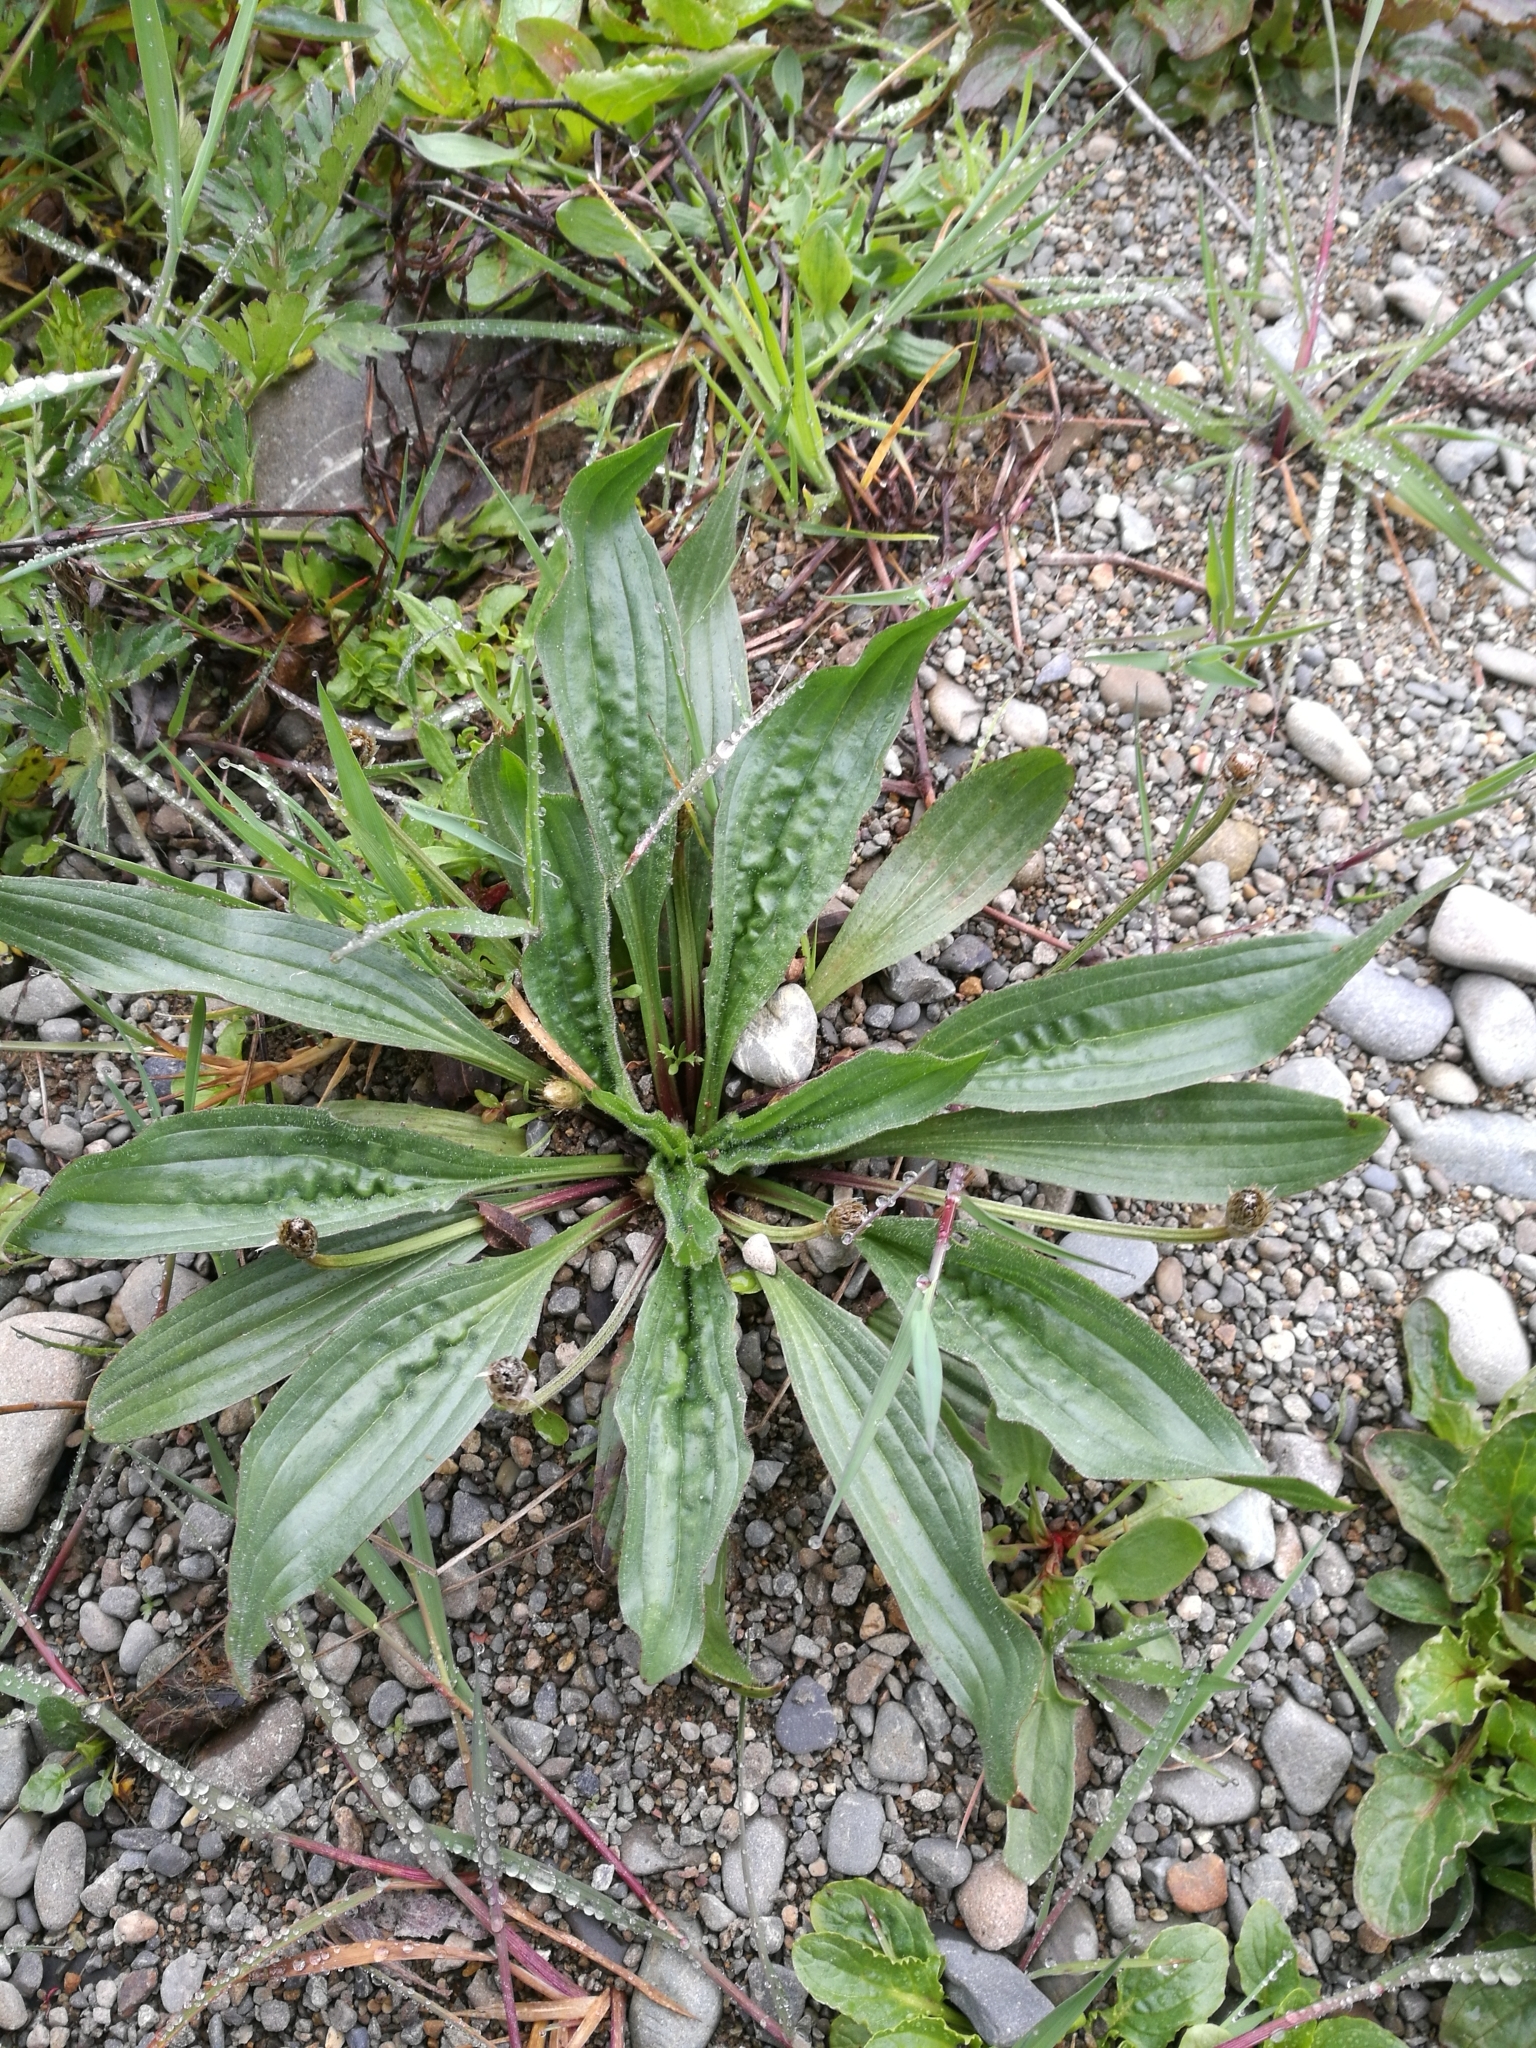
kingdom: Plantae
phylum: Tracheophyta
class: Magnoliopsida
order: Lamiales
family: Plantaginaceae
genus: Plantago
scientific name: Plantago lanceolata
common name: Ribwort plantain
